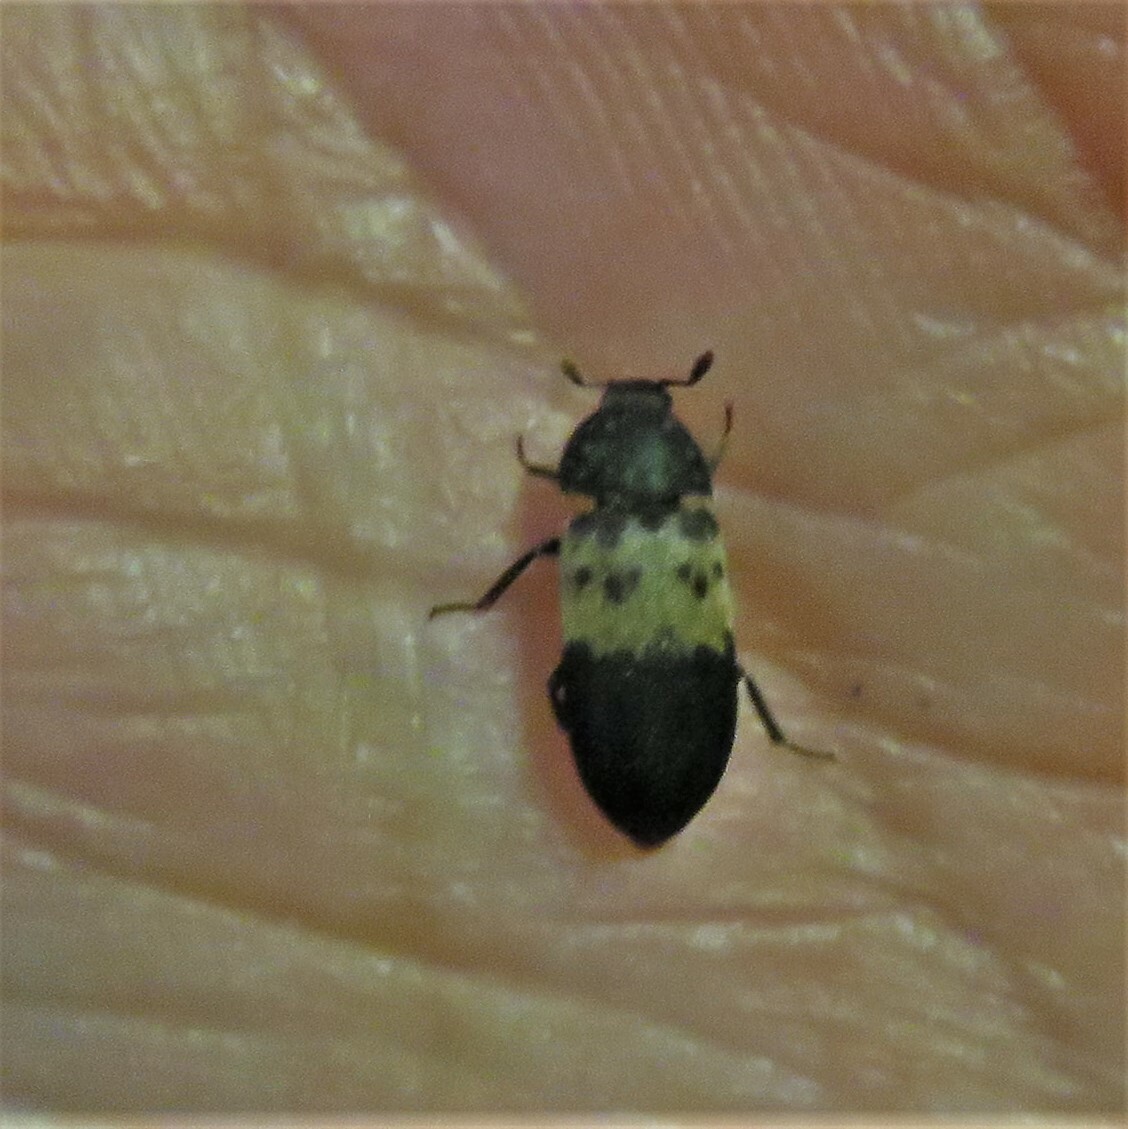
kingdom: Animalia
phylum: Arthropoda
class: Insecta
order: Coleoptera
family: Dermestidae
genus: Dermestes
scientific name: Dermestes lardarius
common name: Larder beetle
